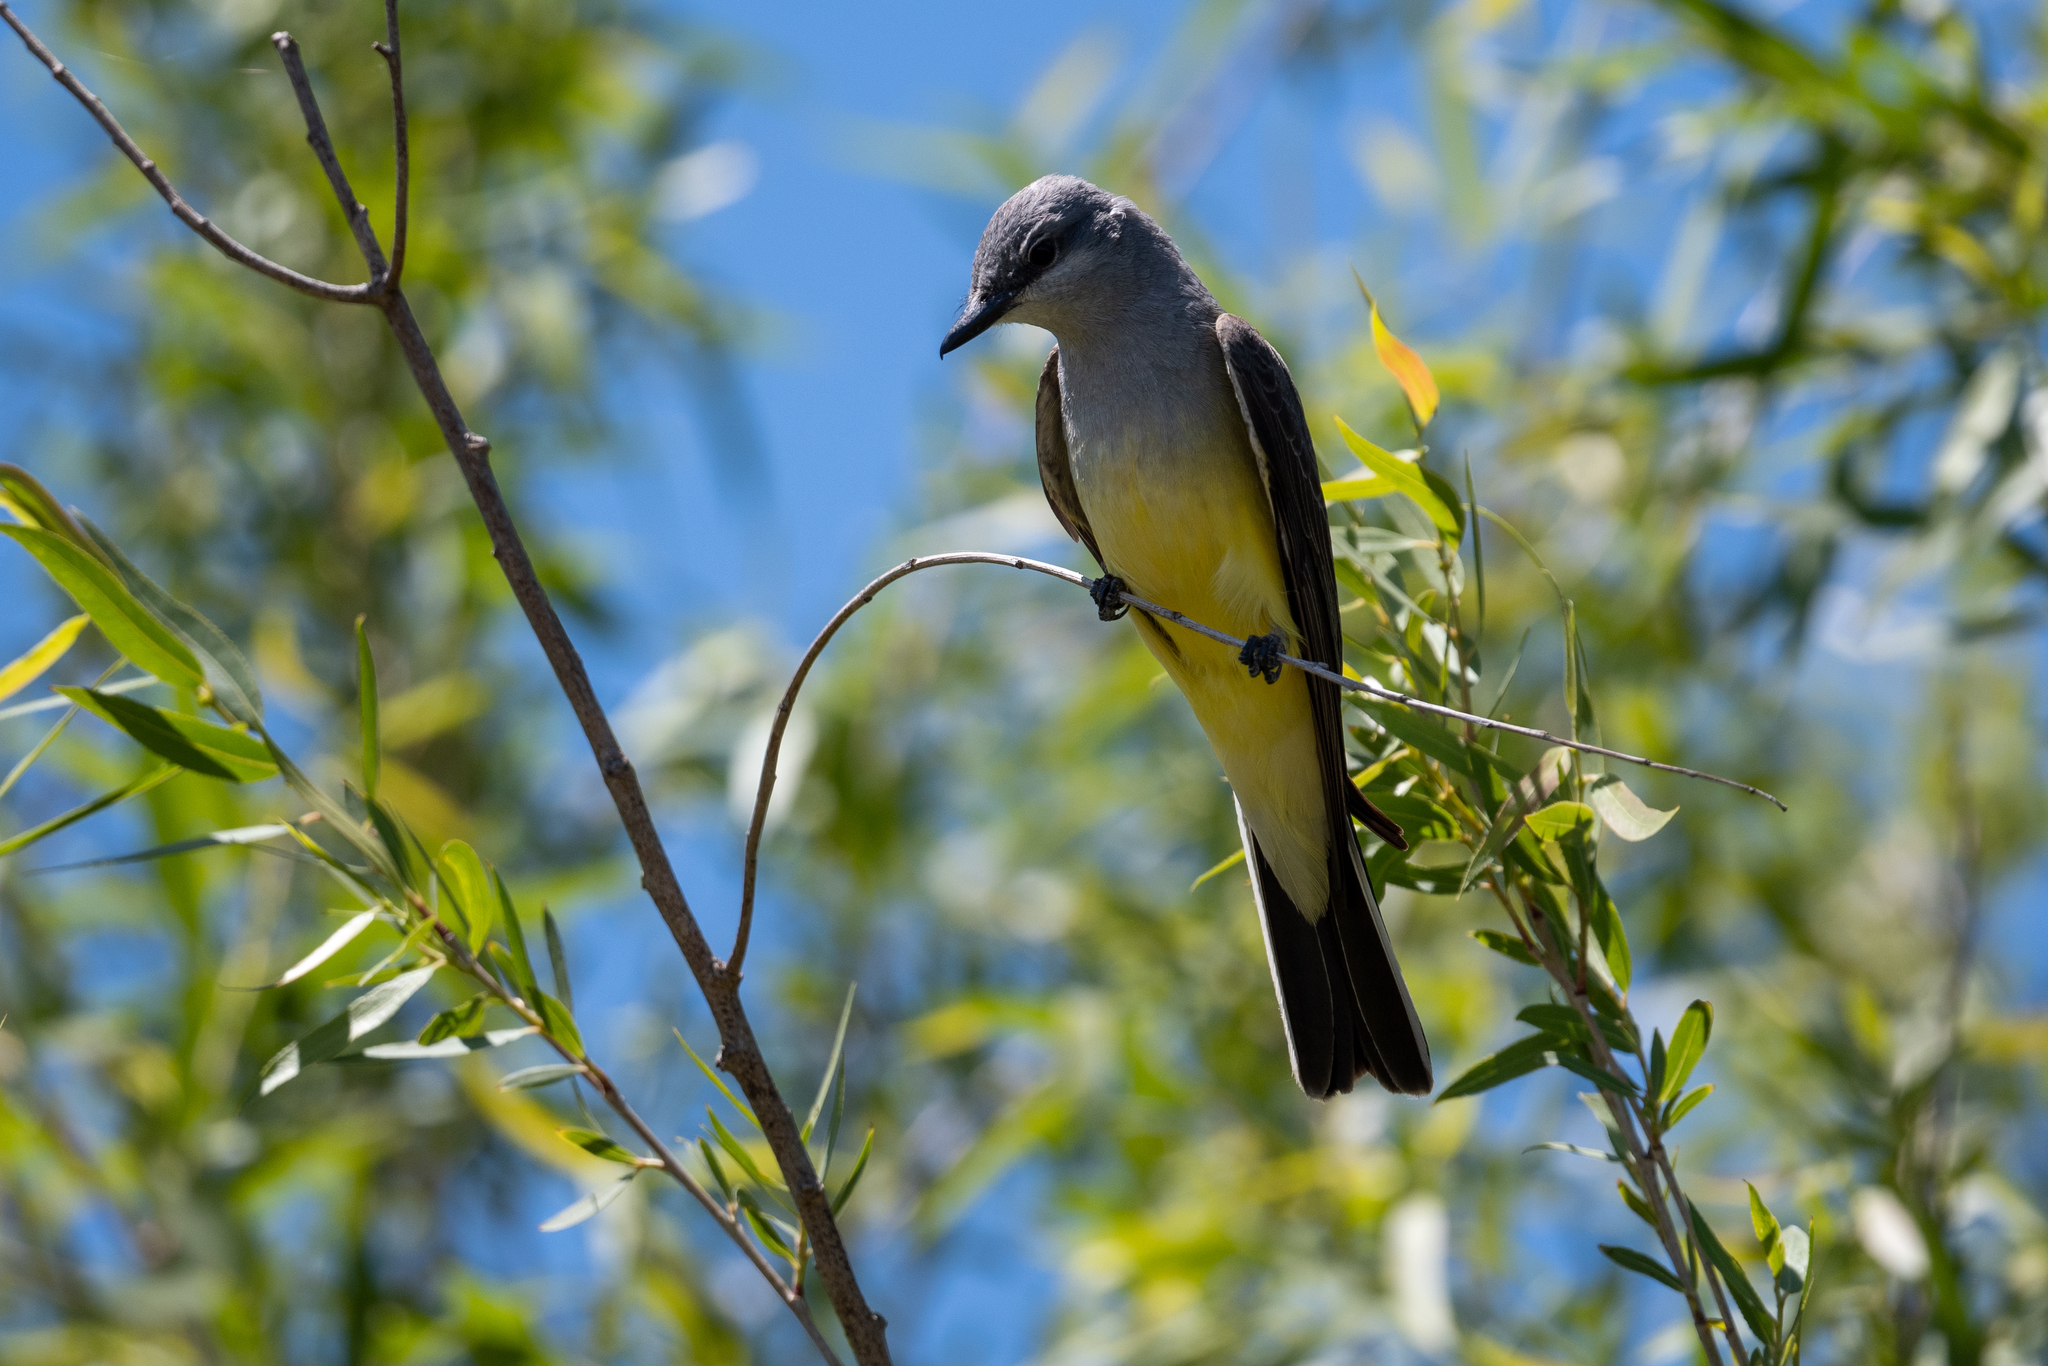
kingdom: Animalia
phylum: Chordata
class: Aves
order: Passeriformes
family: Tyrannidae
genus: Tyrannus
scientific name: Tyrannus verticalis
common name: Western kingbird
